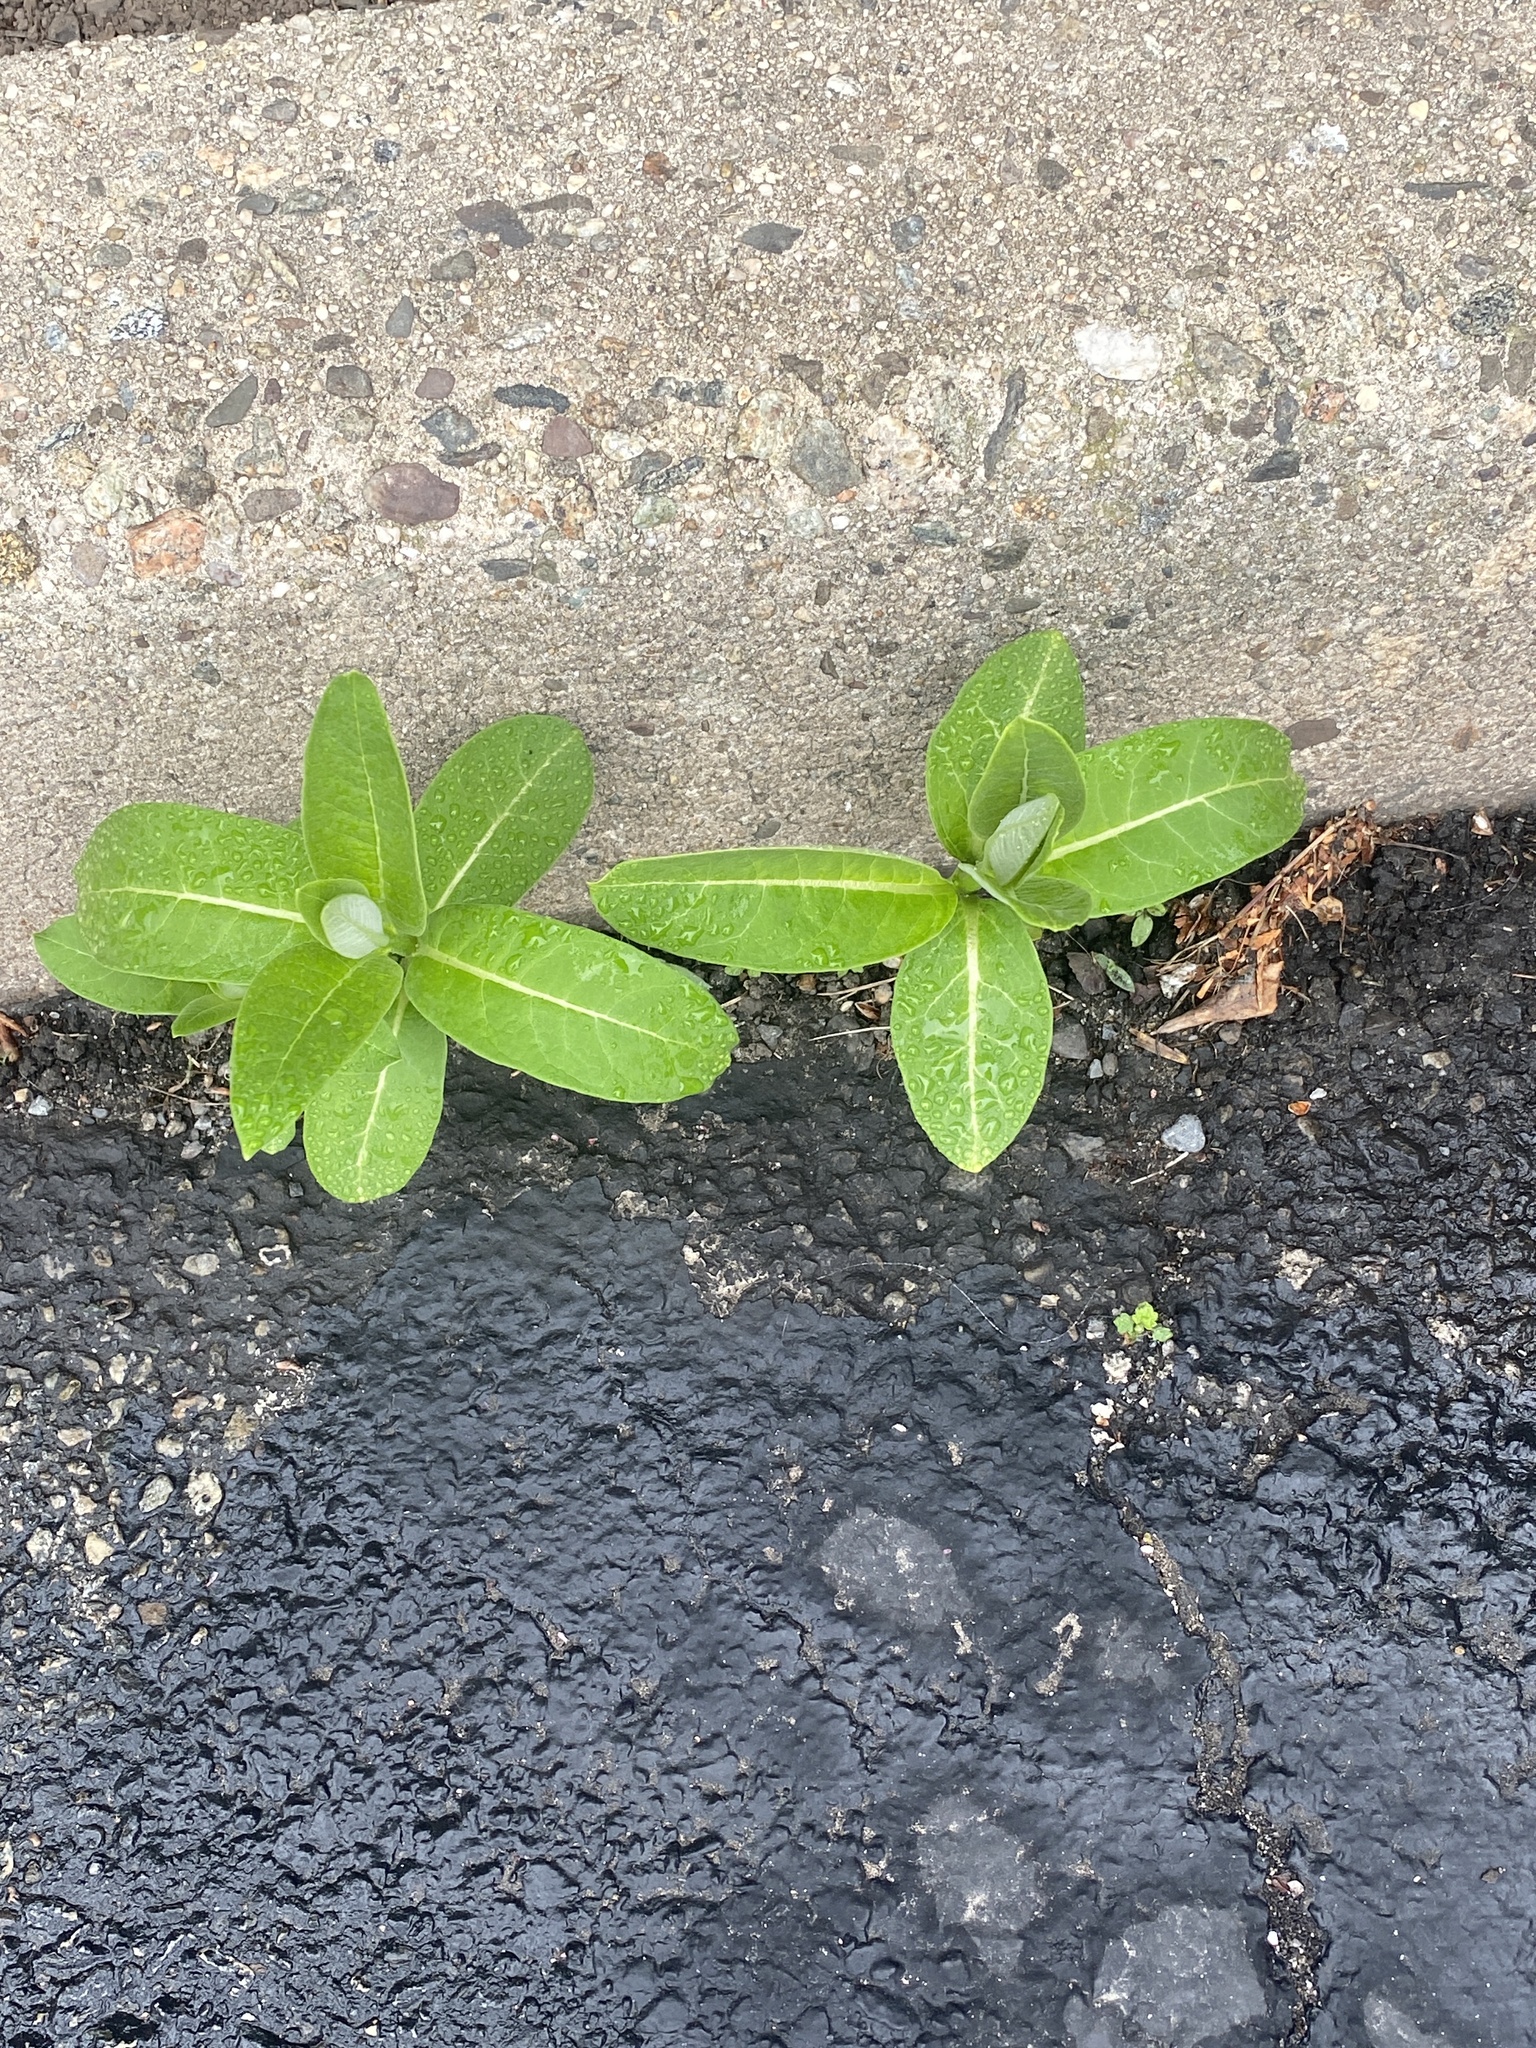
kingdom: Plantae
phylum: Tracheophyta
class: Magnoliopsida
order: Gentianales
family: Apocynaceae
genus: Asclepias
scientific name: Asclepias syriaca
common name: Common milkweed
